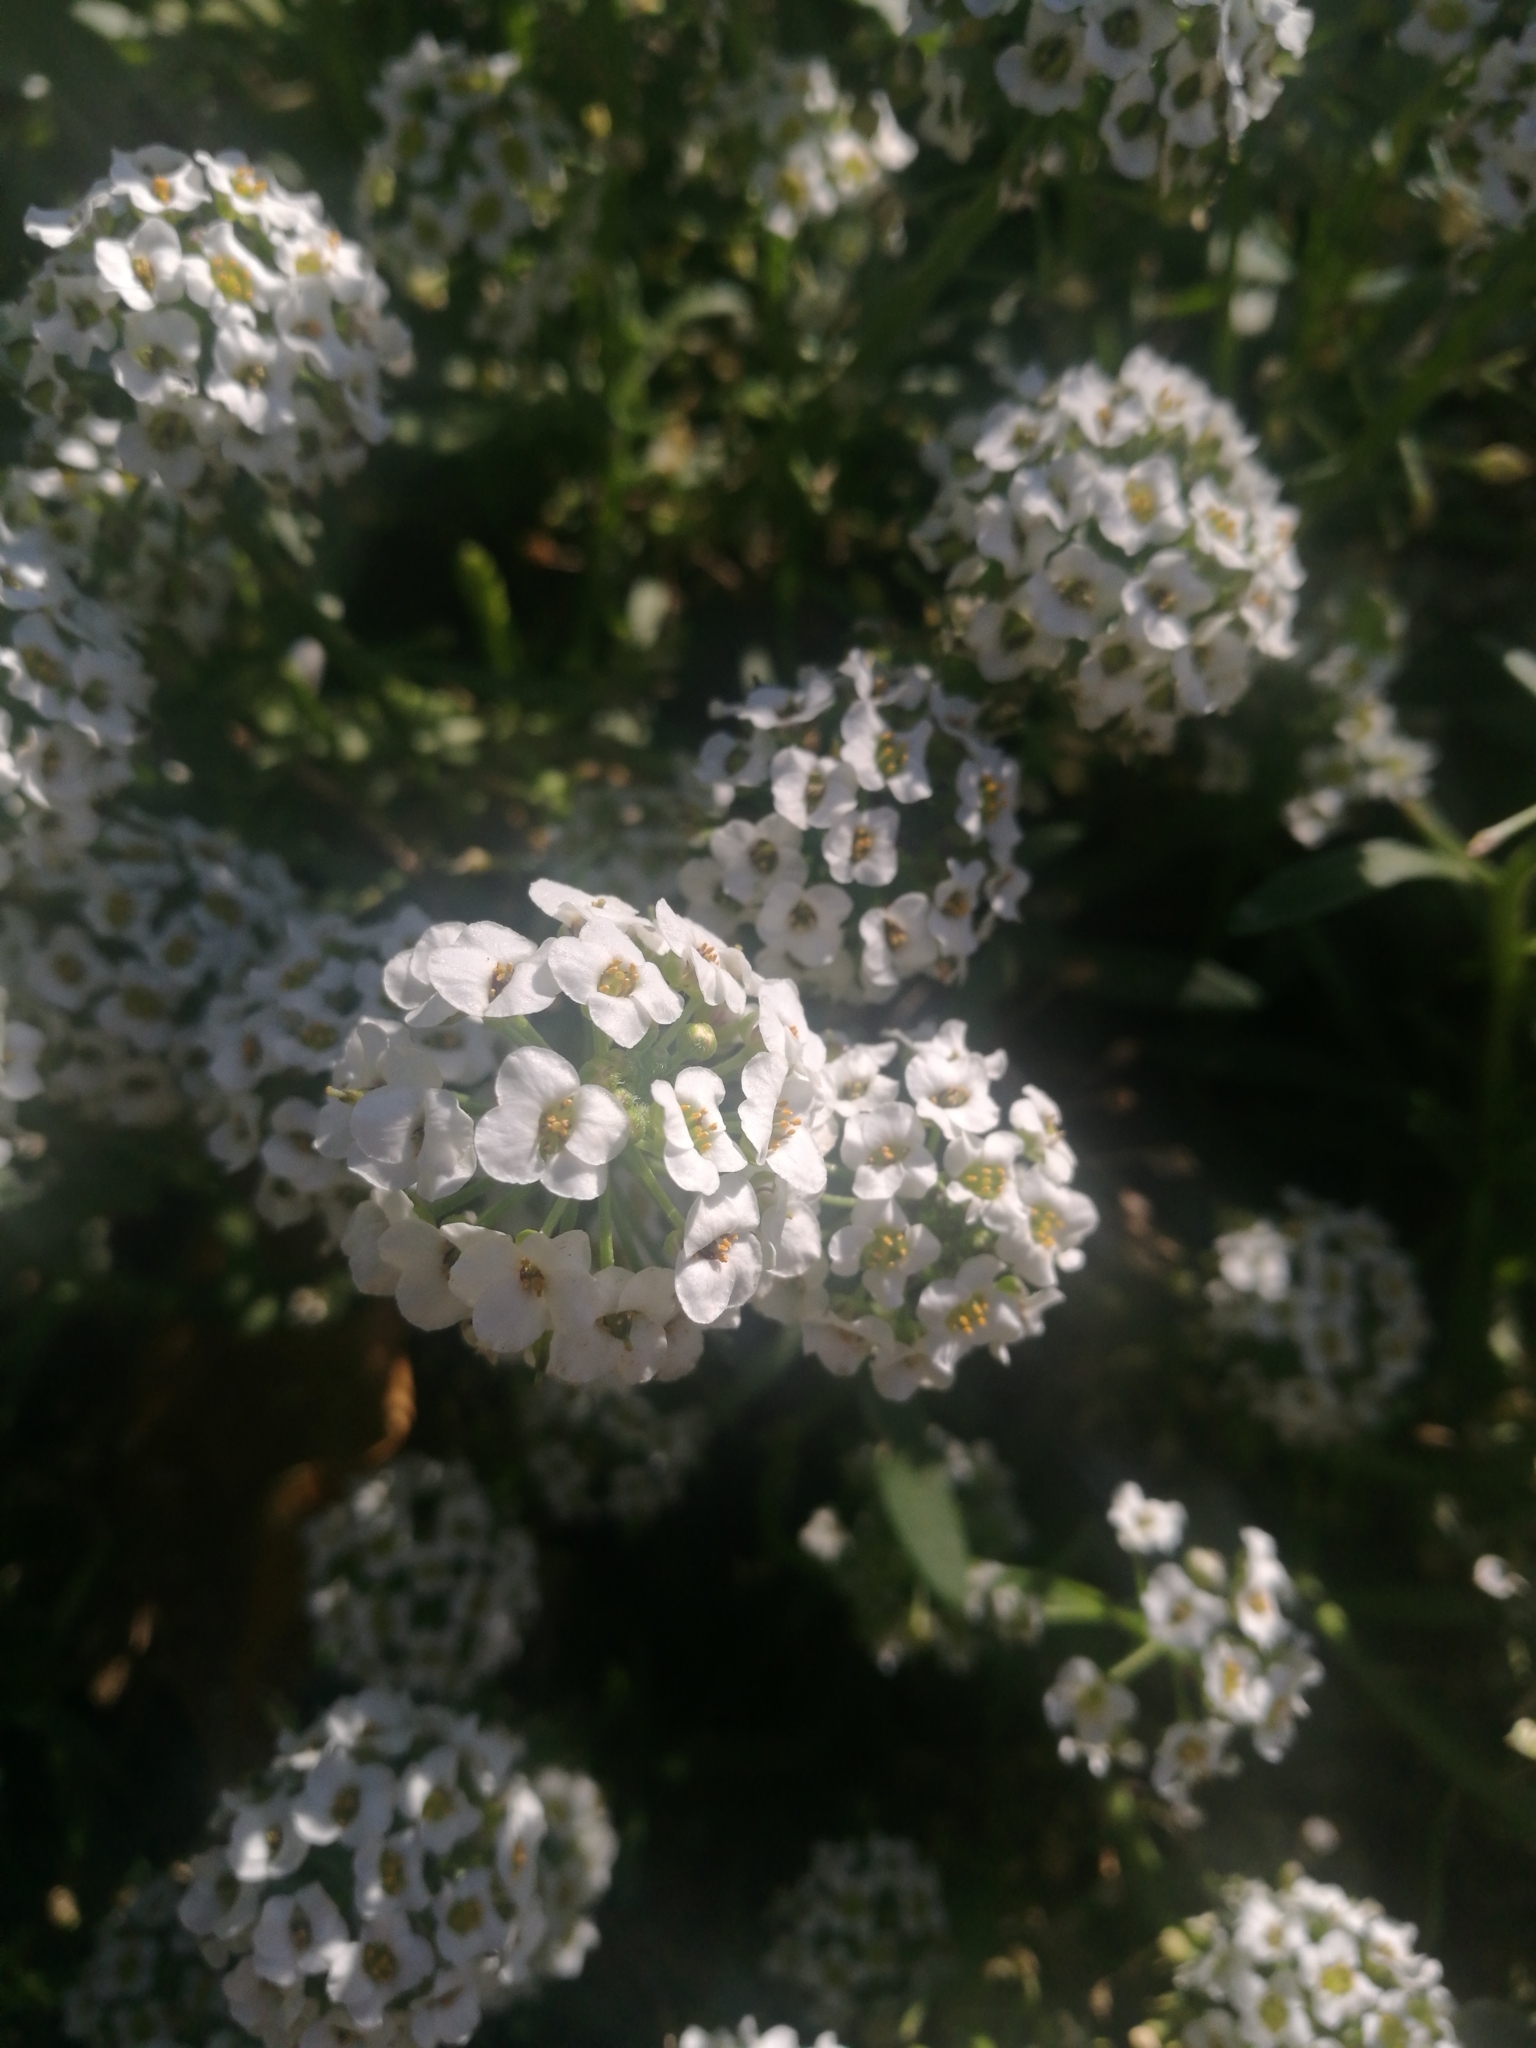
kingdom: Plantae
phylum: Tracheophyta
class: Magnoliopsida
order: Brassicales
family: Brassicaceae
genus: Lobularia
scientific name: Lobularia maritima
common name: Sweet alison
